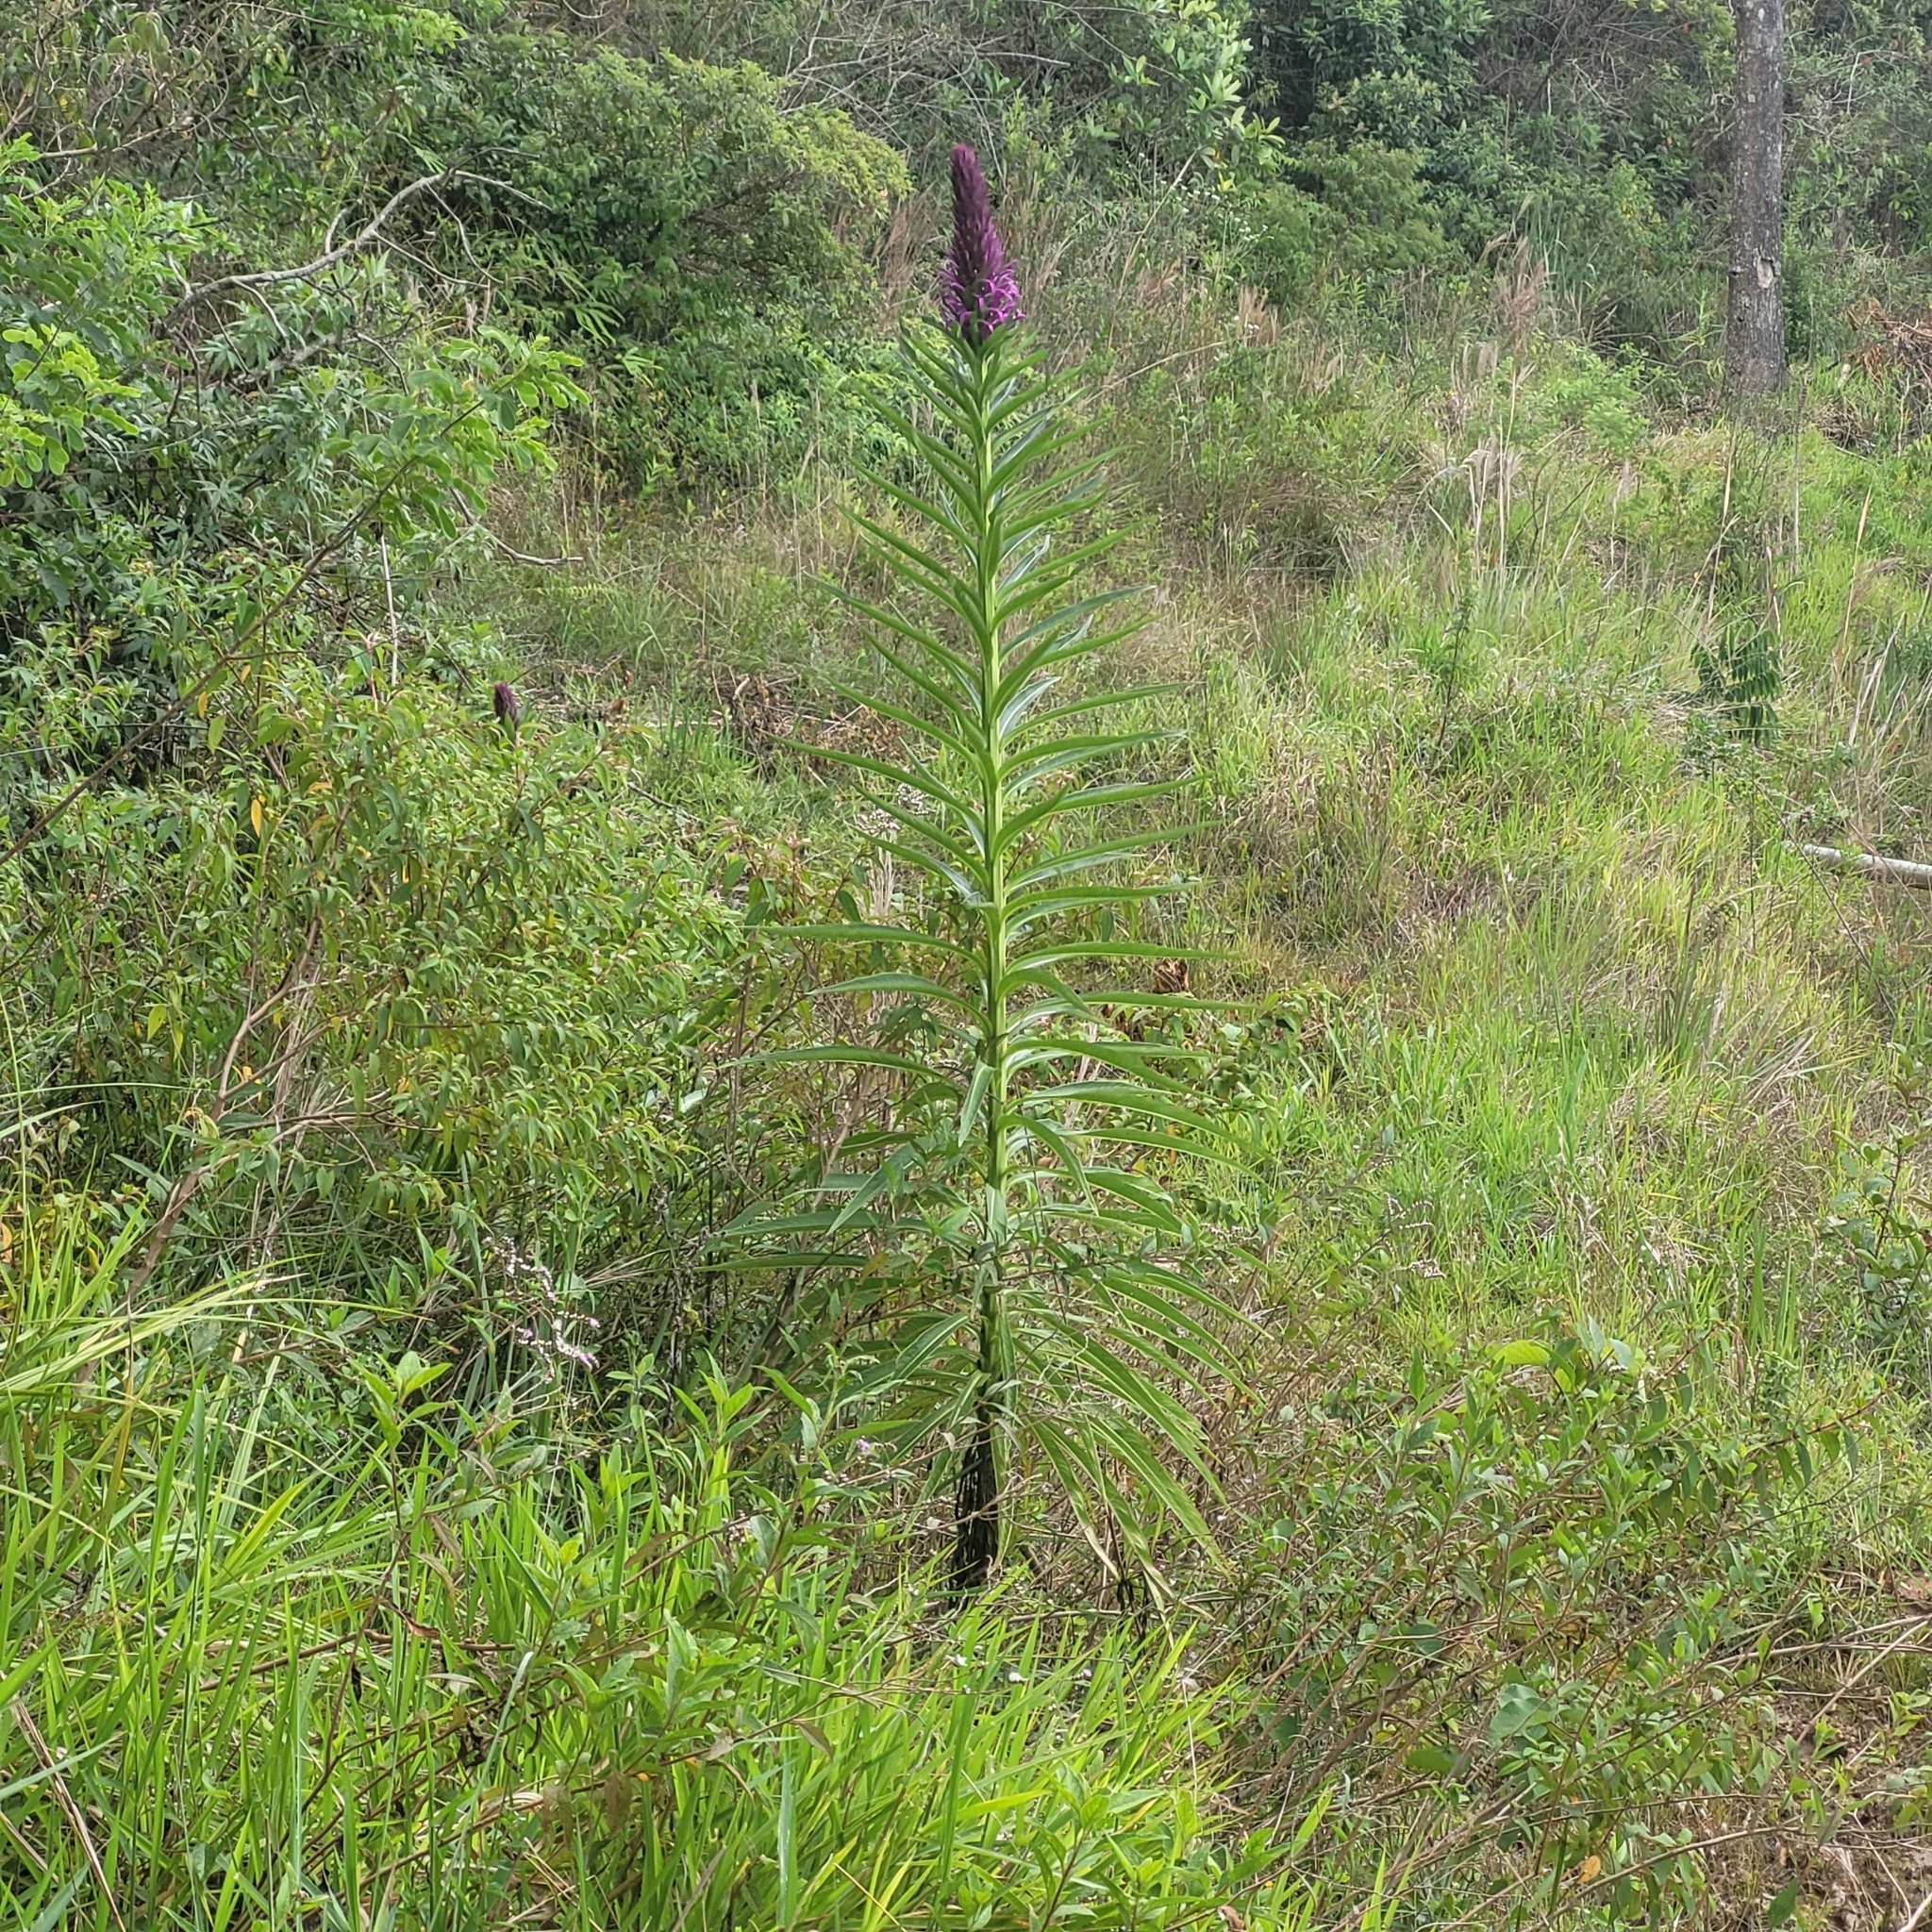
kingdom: Plantae
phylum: Tracheophyta
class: Magnoliopsida
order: Asterales
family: Campanulaceae
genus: Lobelia
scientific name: Lobelia brasiliensis
